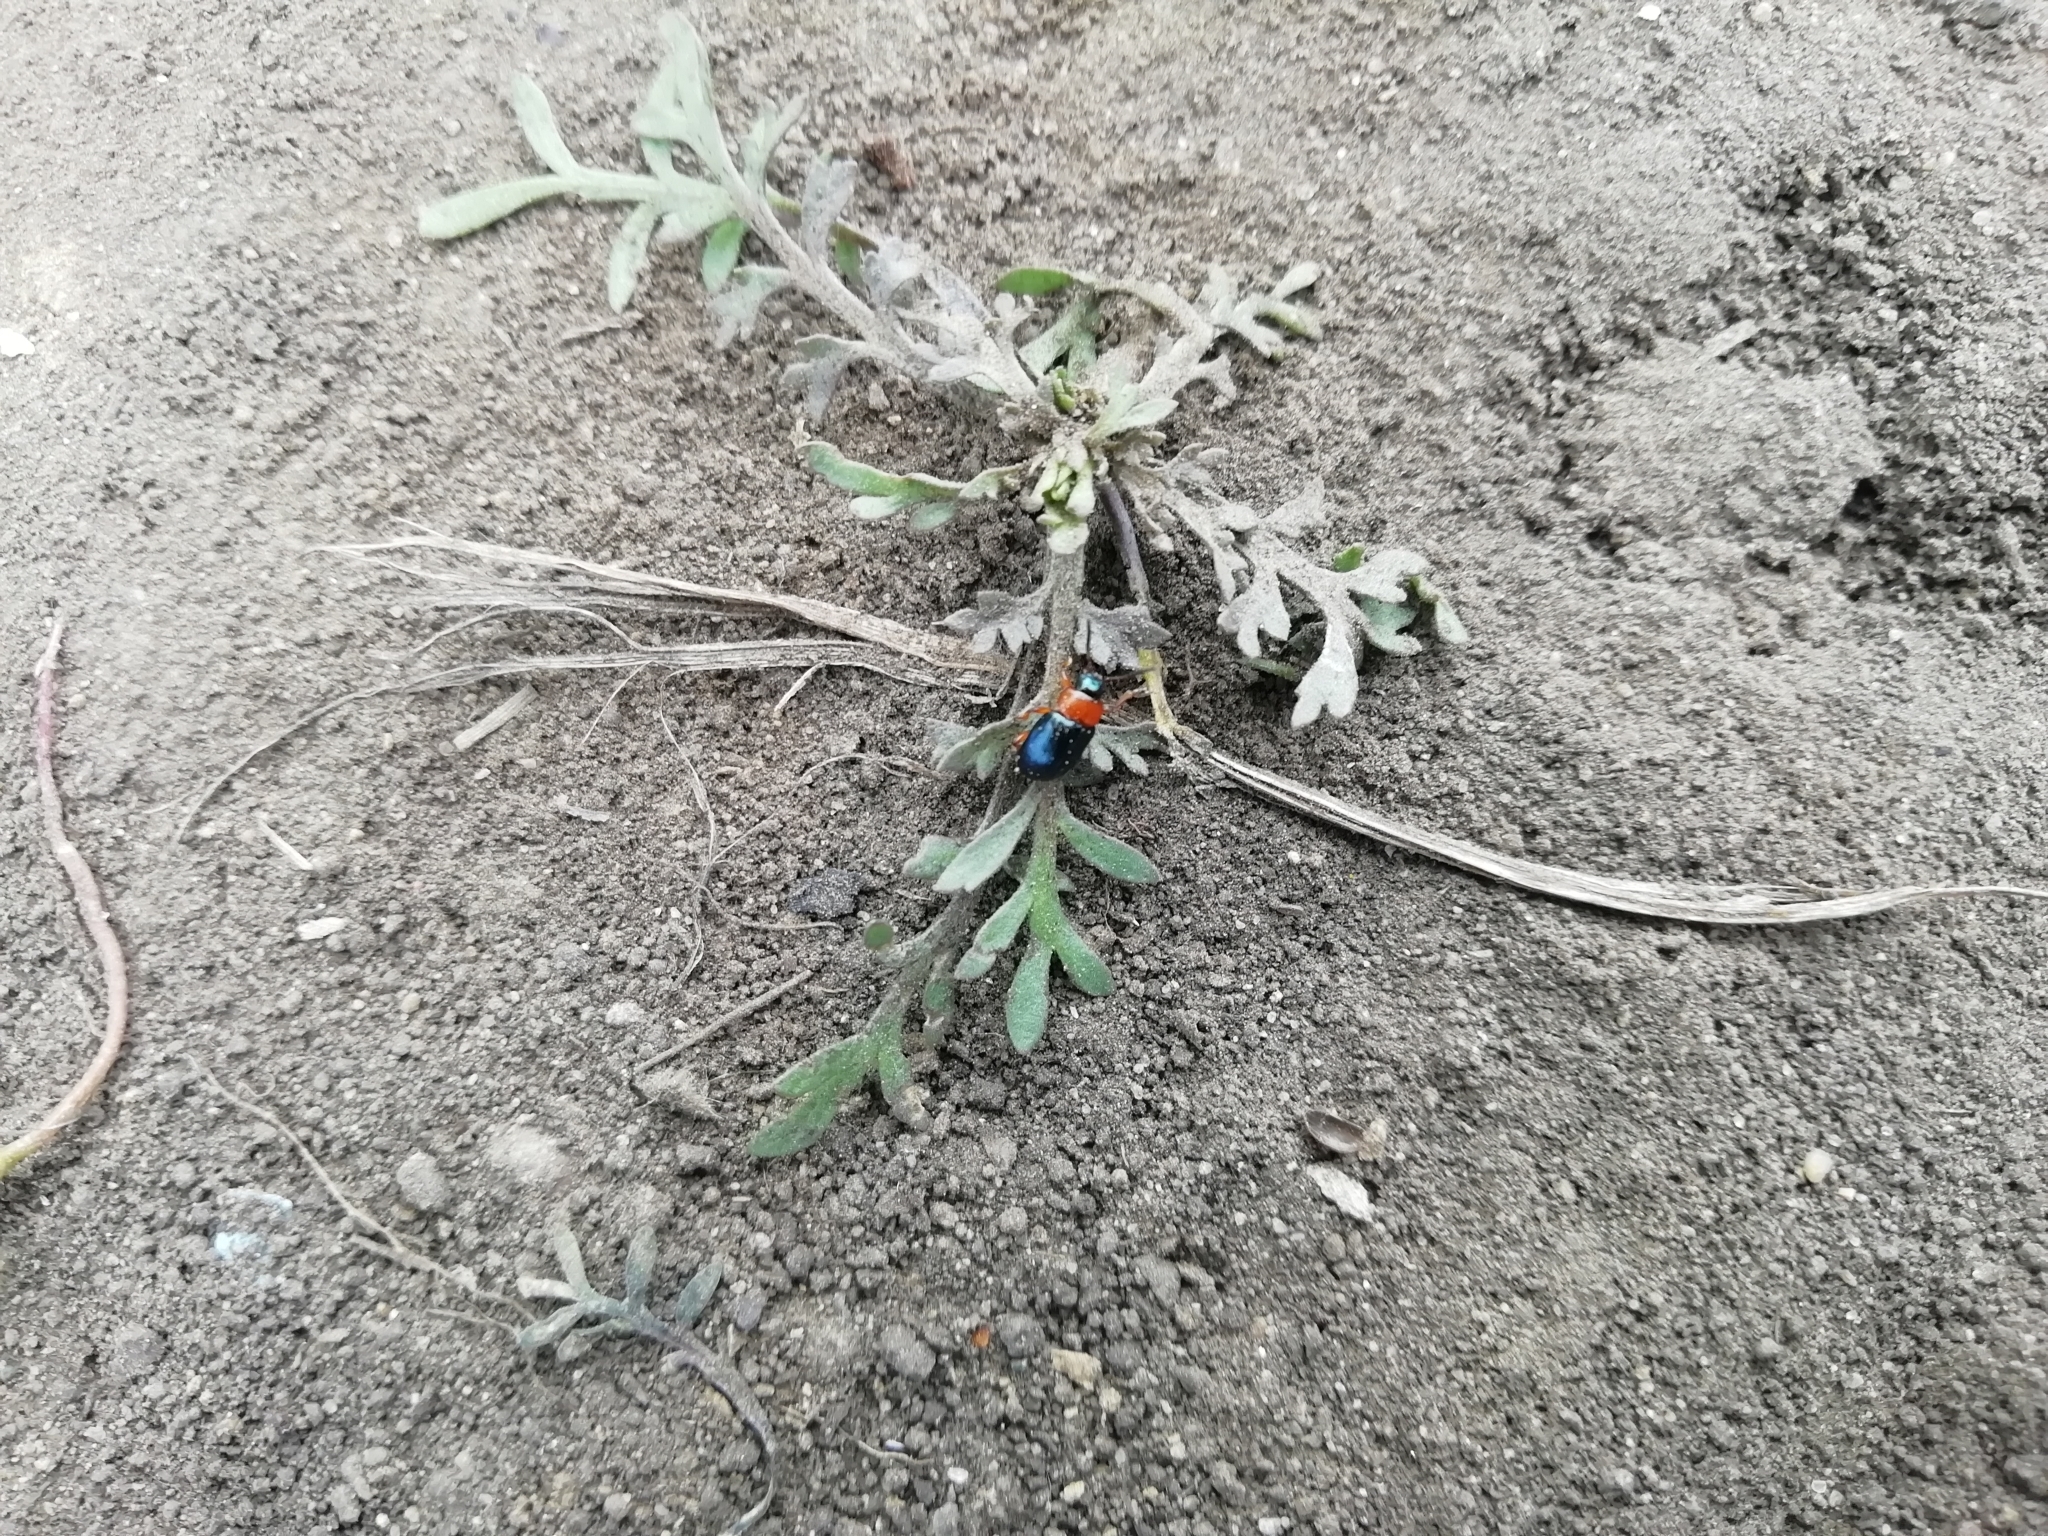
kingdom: Animalia
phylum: Arthropoda
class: Insecta
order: Coleoptera
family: Chrysomelidae
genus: Gastrophysa
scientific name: Gastrophysa polygoni
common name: Knotweed leaf beetle
